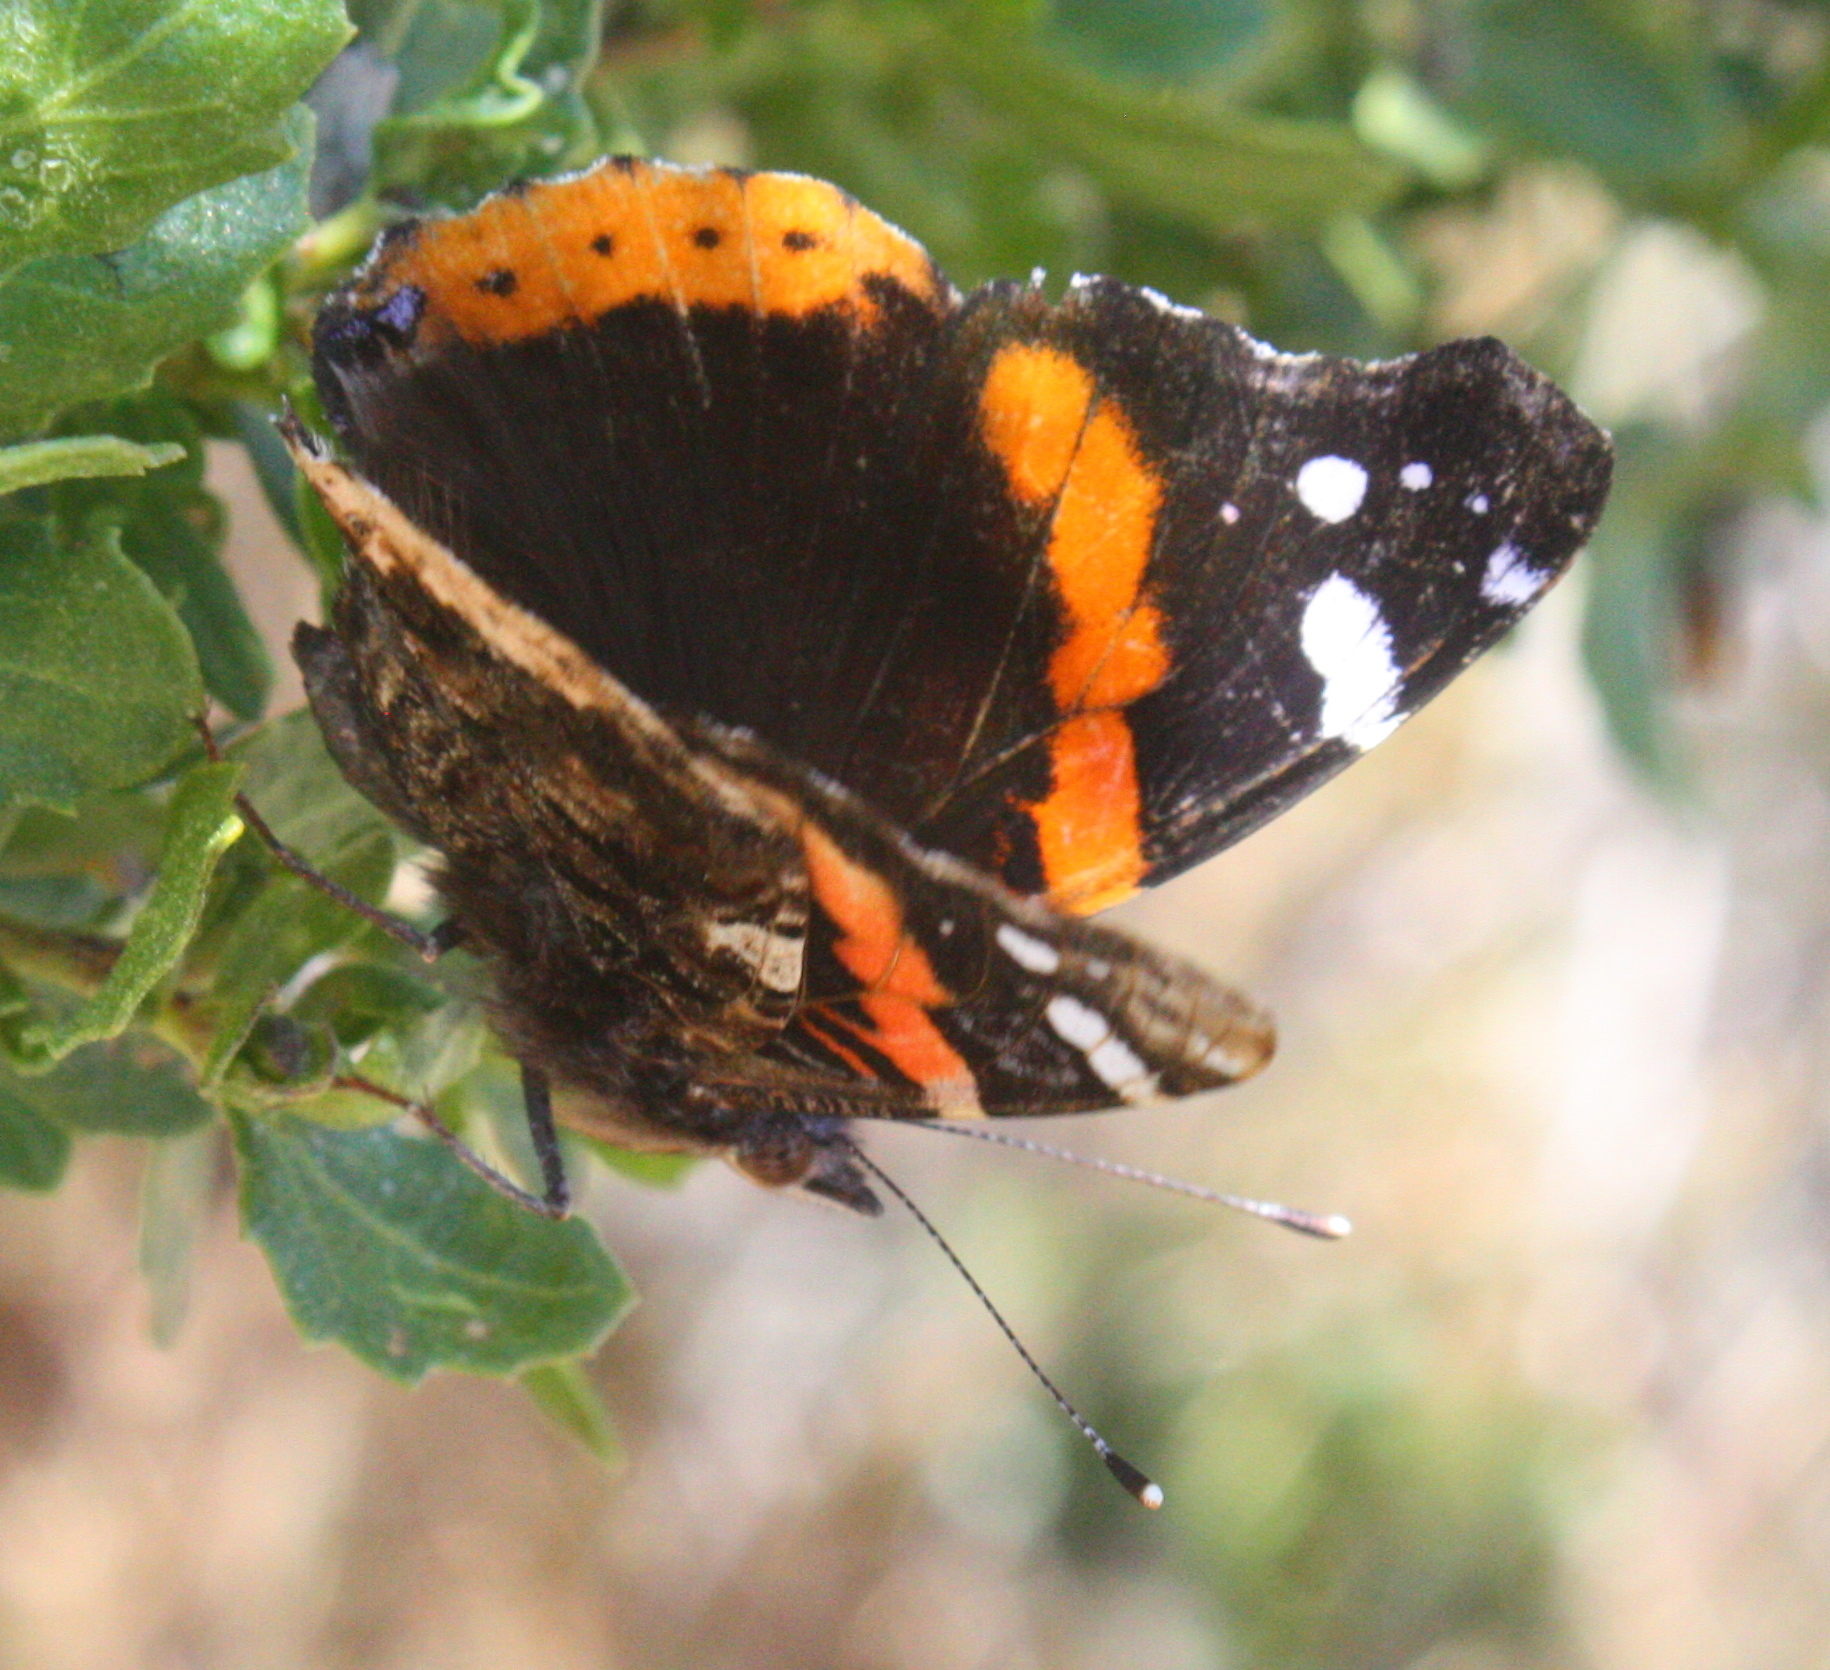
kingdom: Animalia
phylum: Arthropoda
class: Insecta
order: Lepidoptera
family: Nymphalidae
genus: Vanessa
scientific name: Vanessa atalanta
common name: Red admiral
